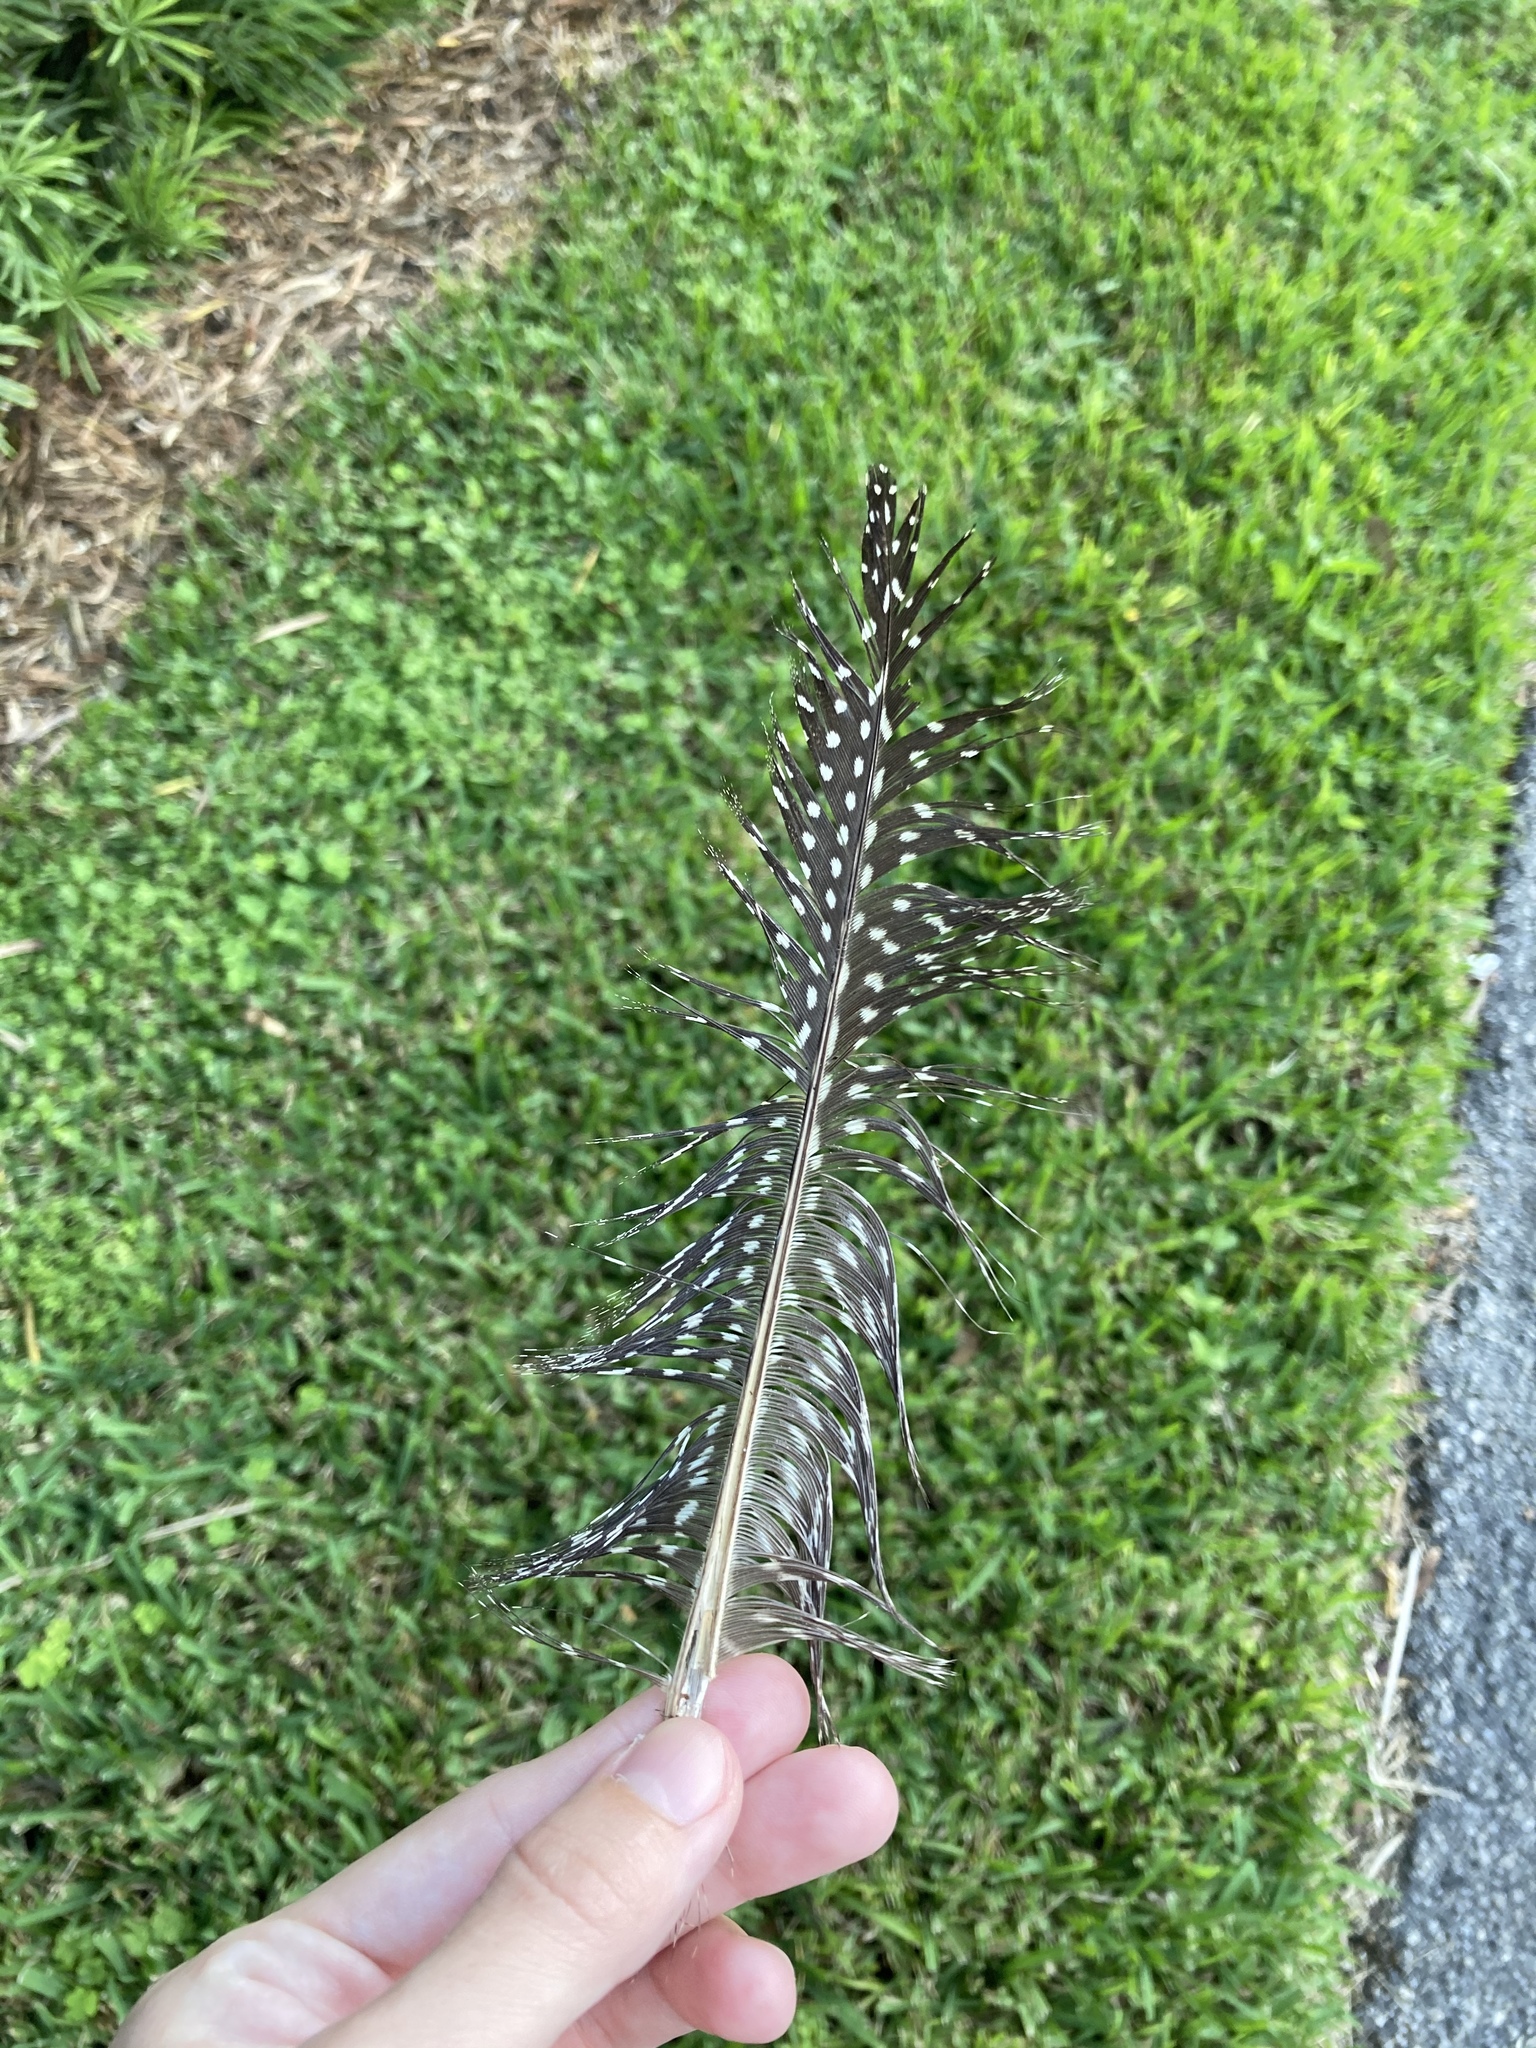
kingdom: Animalia
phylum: Chordata
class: Aves
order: Galliformes
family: Numididae
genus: Numida
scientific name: Numida meleagris
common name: Helmeted guineafowl
